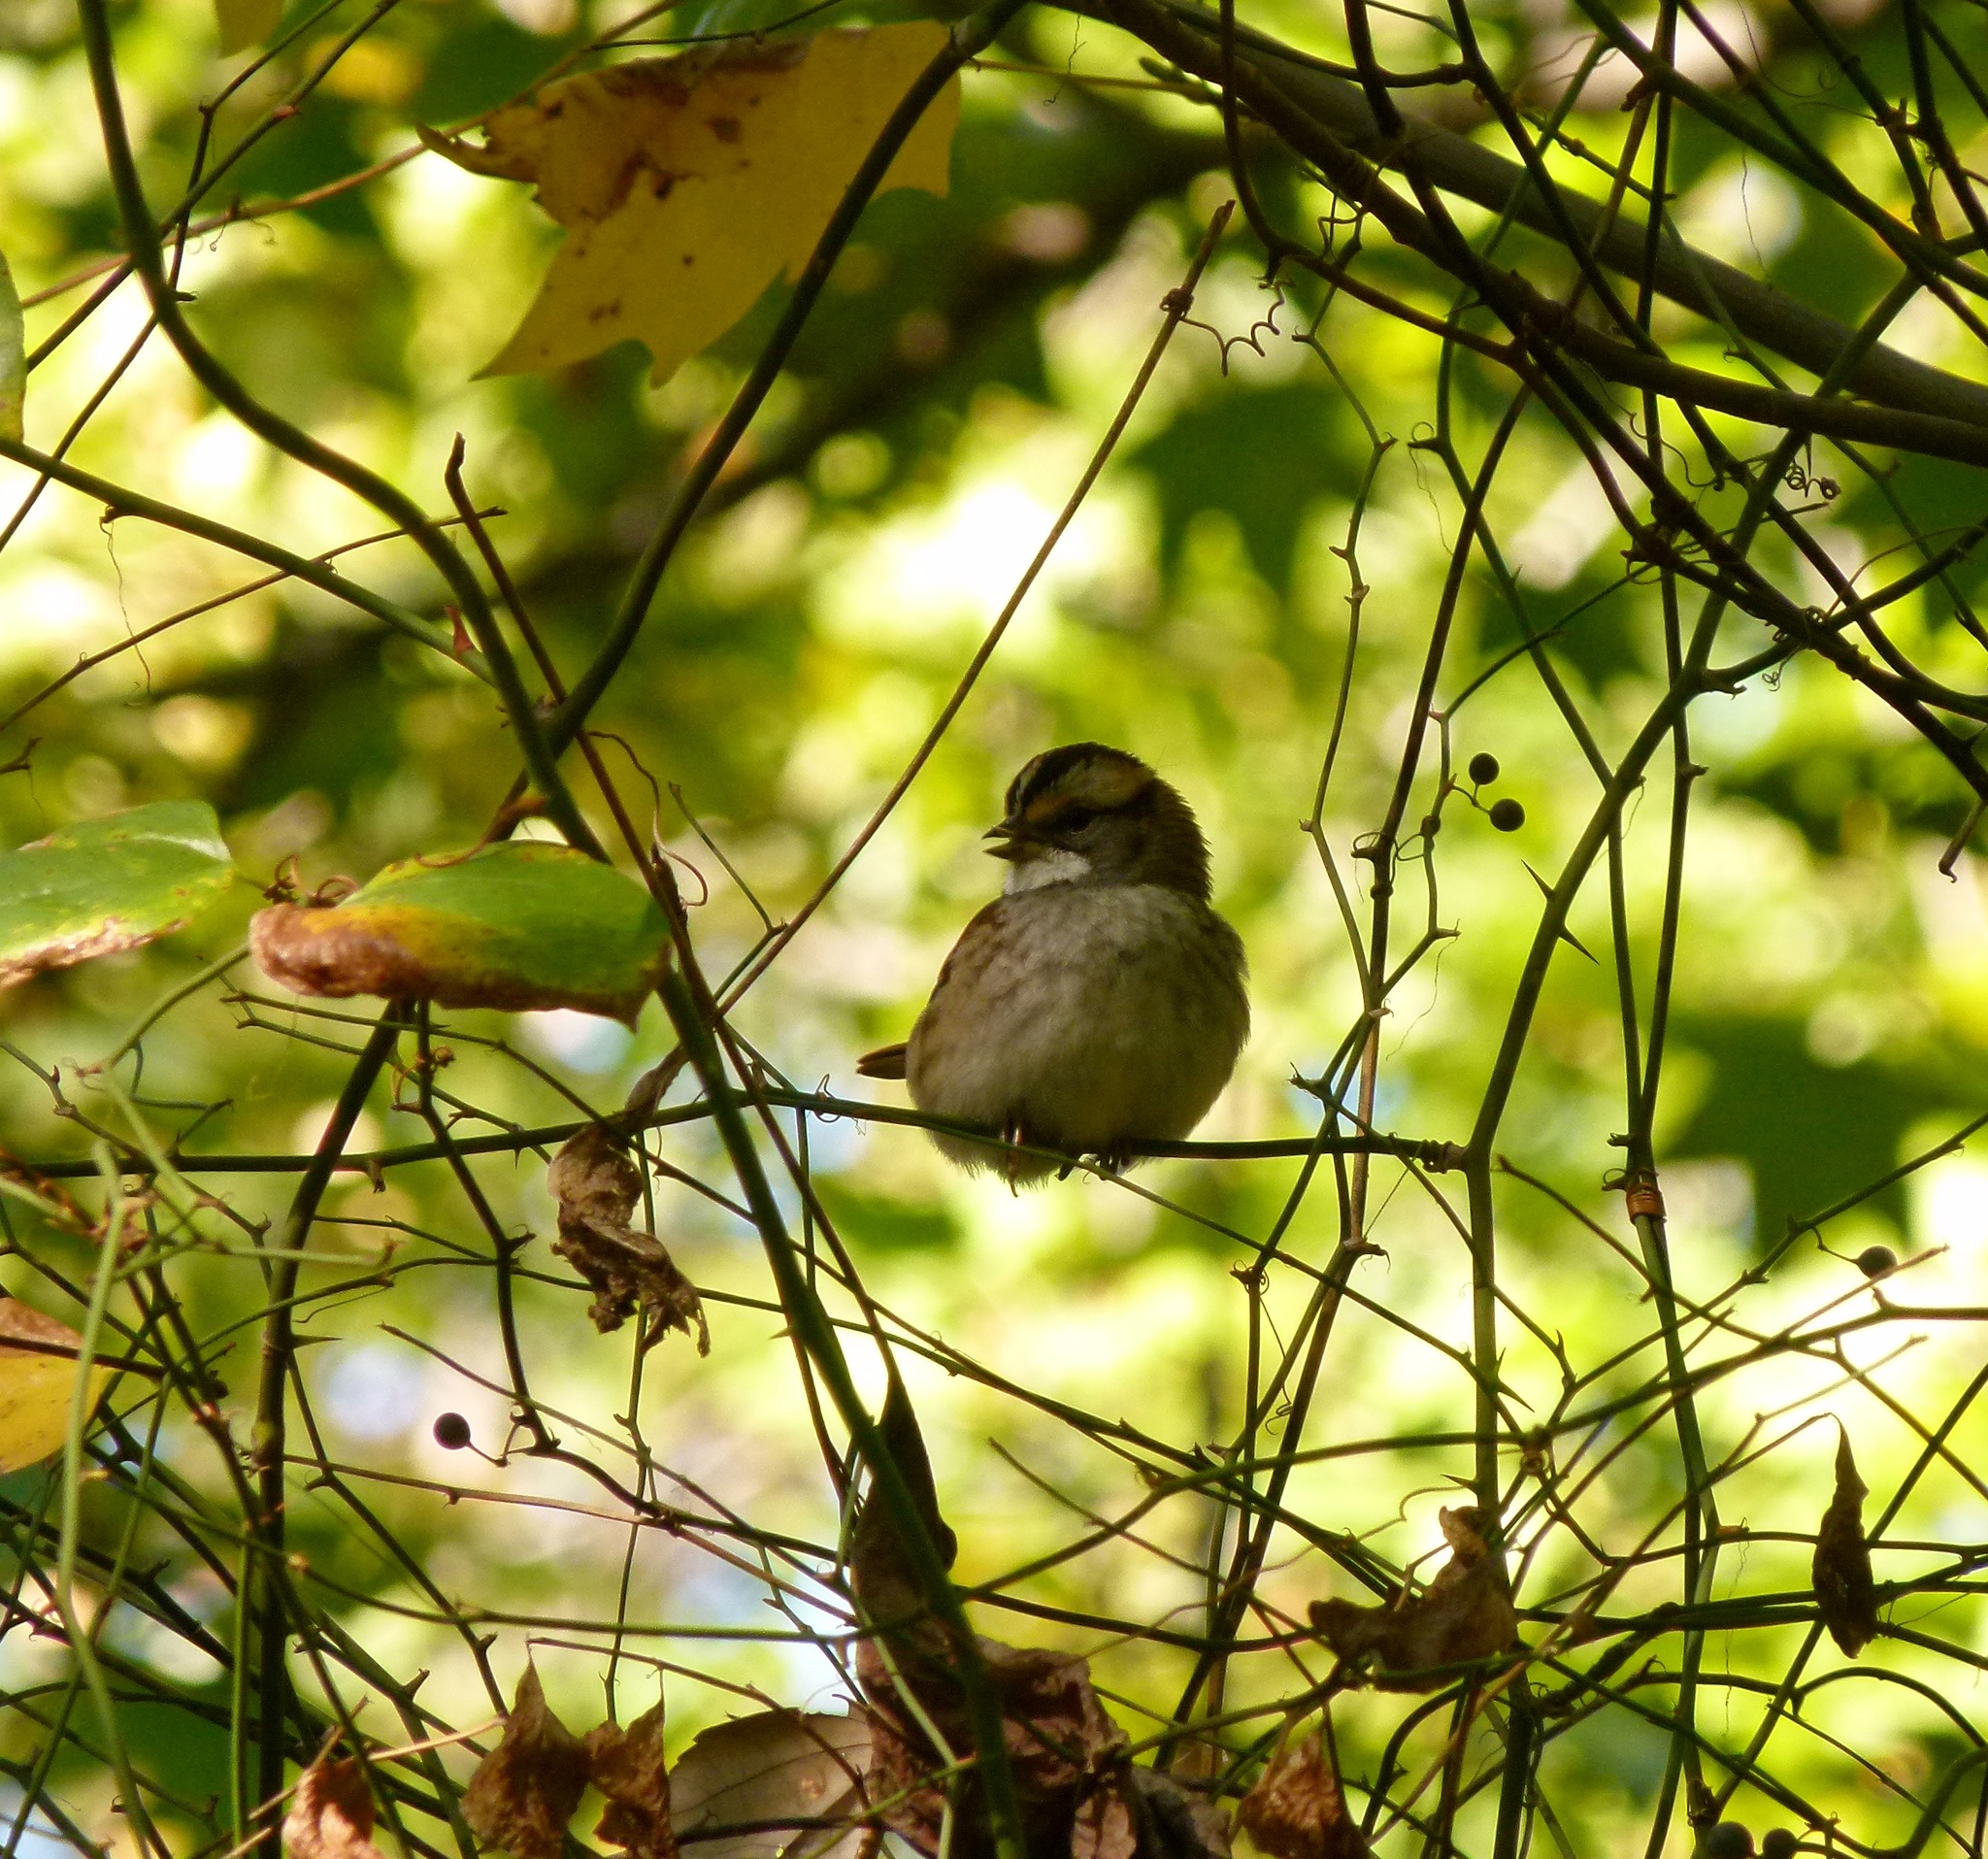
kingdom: Animalia
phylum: Chordata
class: Aves
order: Passeriformes
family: Passerellidae
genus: Zonotrichia
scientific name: Zonotrichia albicollis
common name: White-throated sparrow
